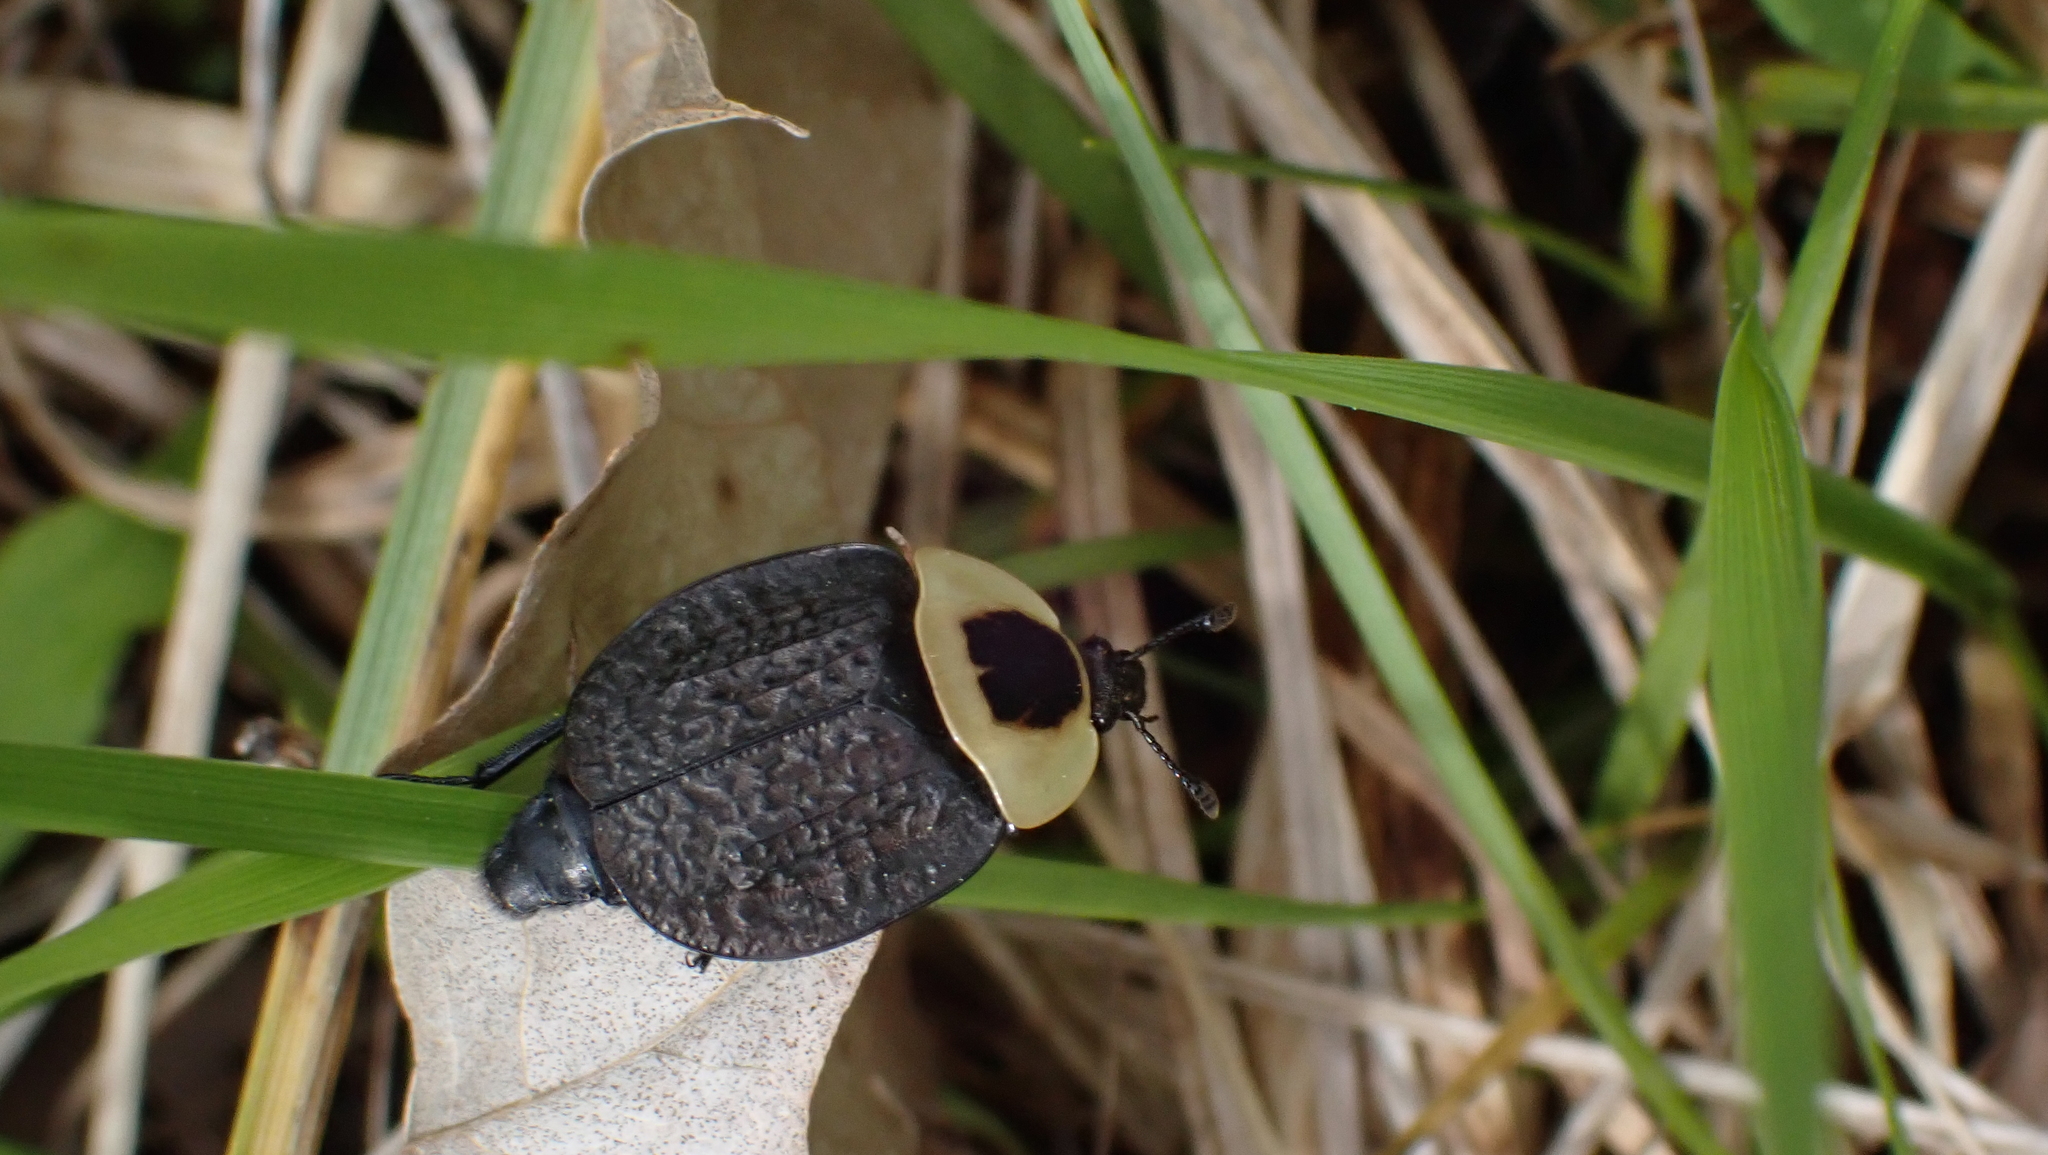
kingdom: Animalia
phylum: Arthropoda
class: Insecta
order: Coleoptera
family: Staphylinidae
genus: Necrophila
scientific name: Necrophila americana
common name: American carrion beetle
